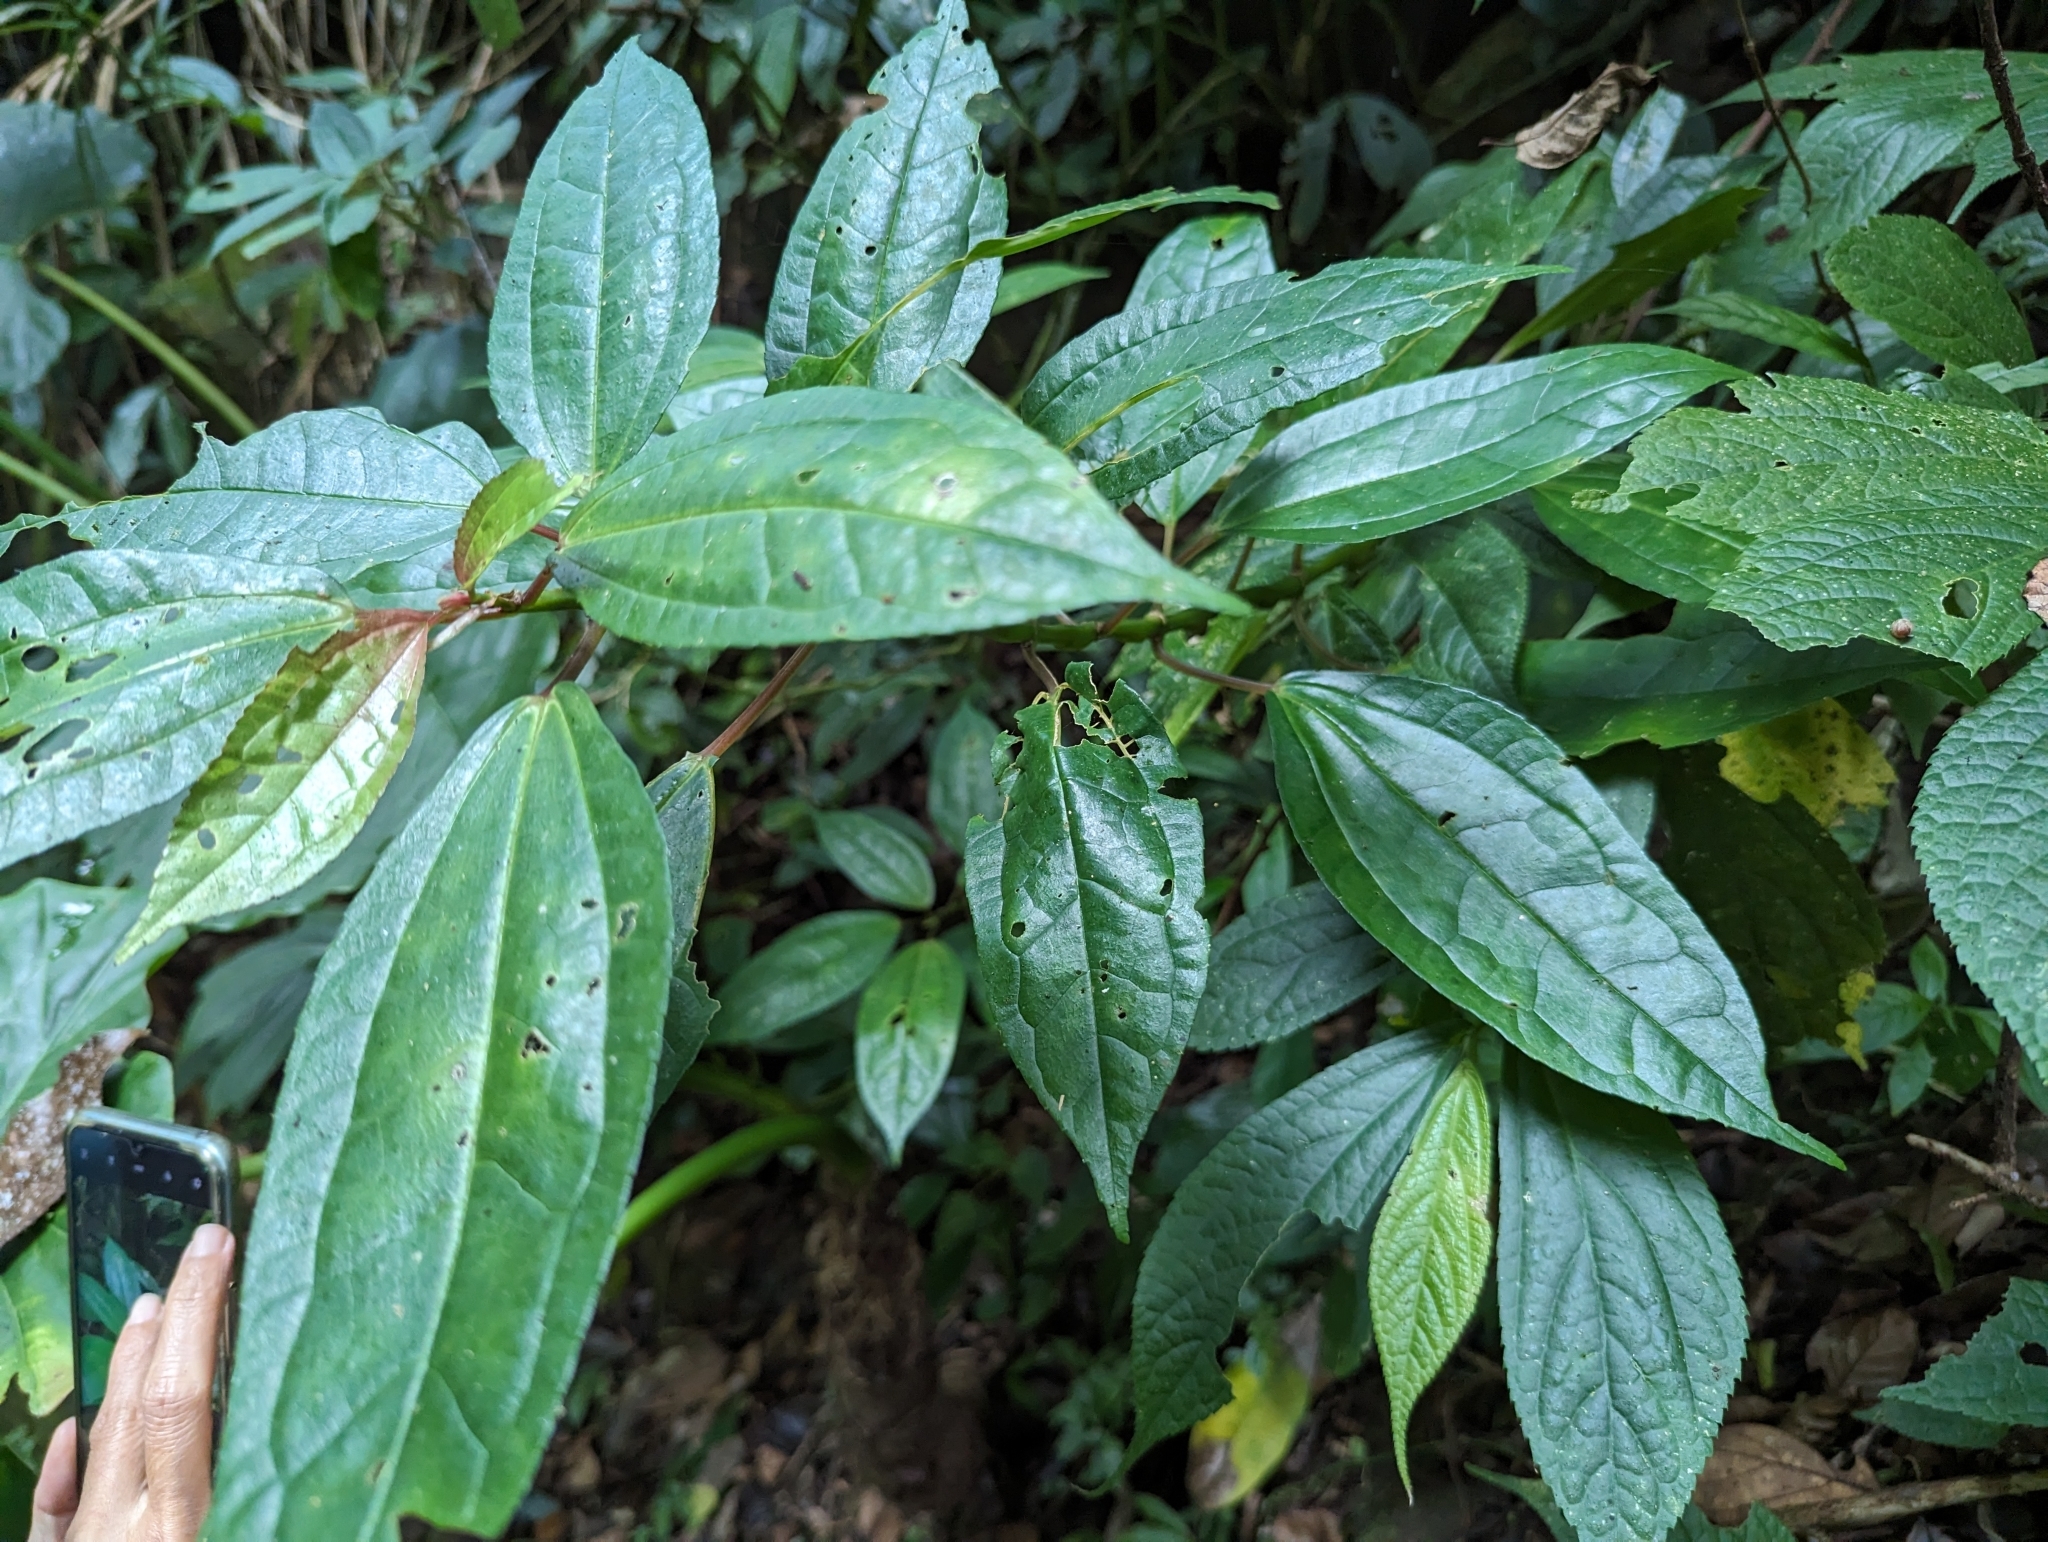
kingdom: Plantae
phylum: Tracheophyta
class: Magnoliopsida
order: Rosales
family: Urticaceae
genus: Pilea
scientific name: Pilea funkikensis
